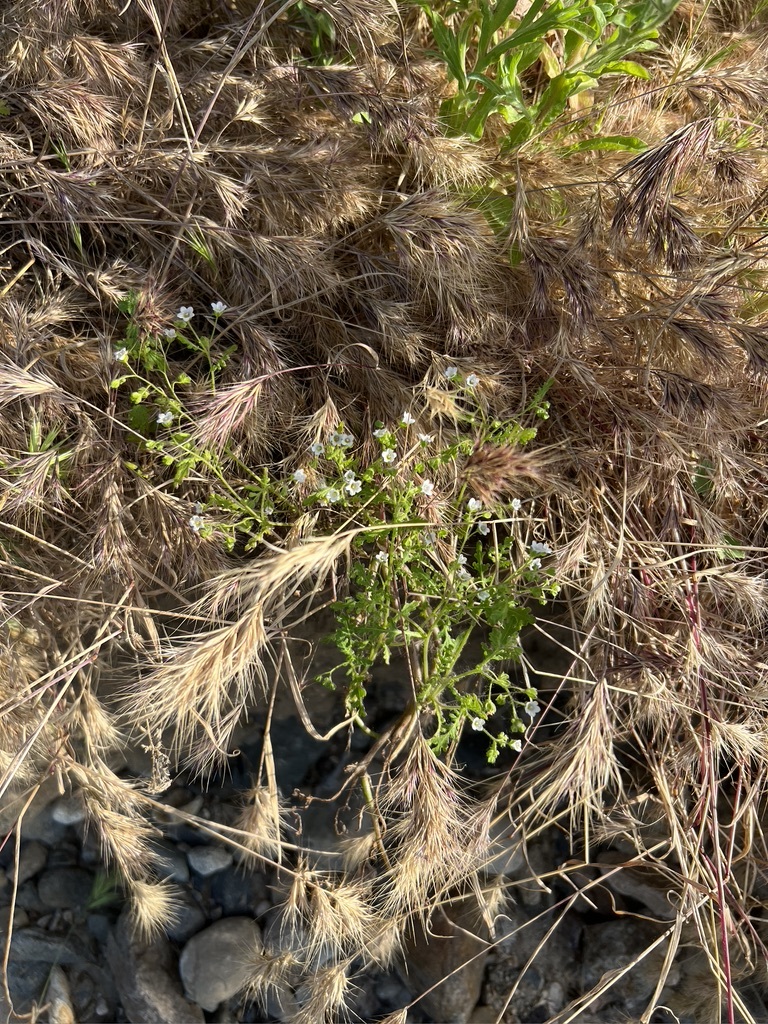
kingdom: Plantae
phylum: Tracheophyta
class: Magnoliopsida
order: Boraginales
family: Hydrophyllaceae
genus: Eucrypta
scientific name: Eucrypta chrysanthemifolia
